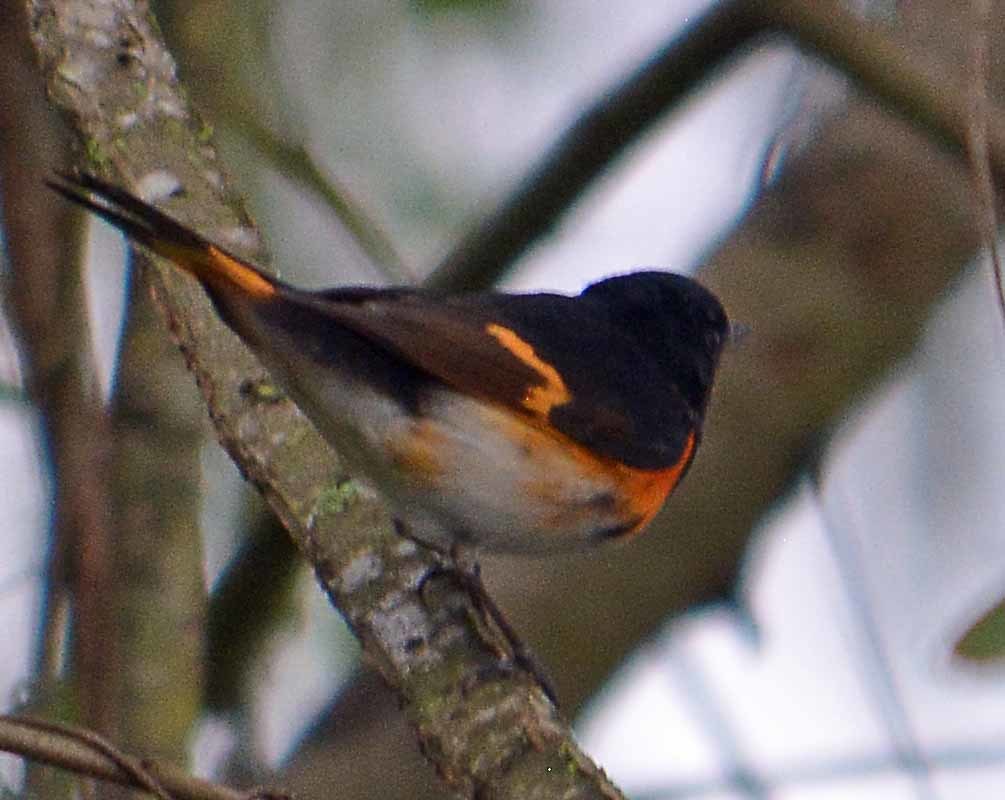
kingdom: Animalia
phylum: Chordata
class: Aves
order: Passeriformes
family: Parulidae
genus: Setophaga
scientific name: Setophaga ruticilla
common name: American redstart
